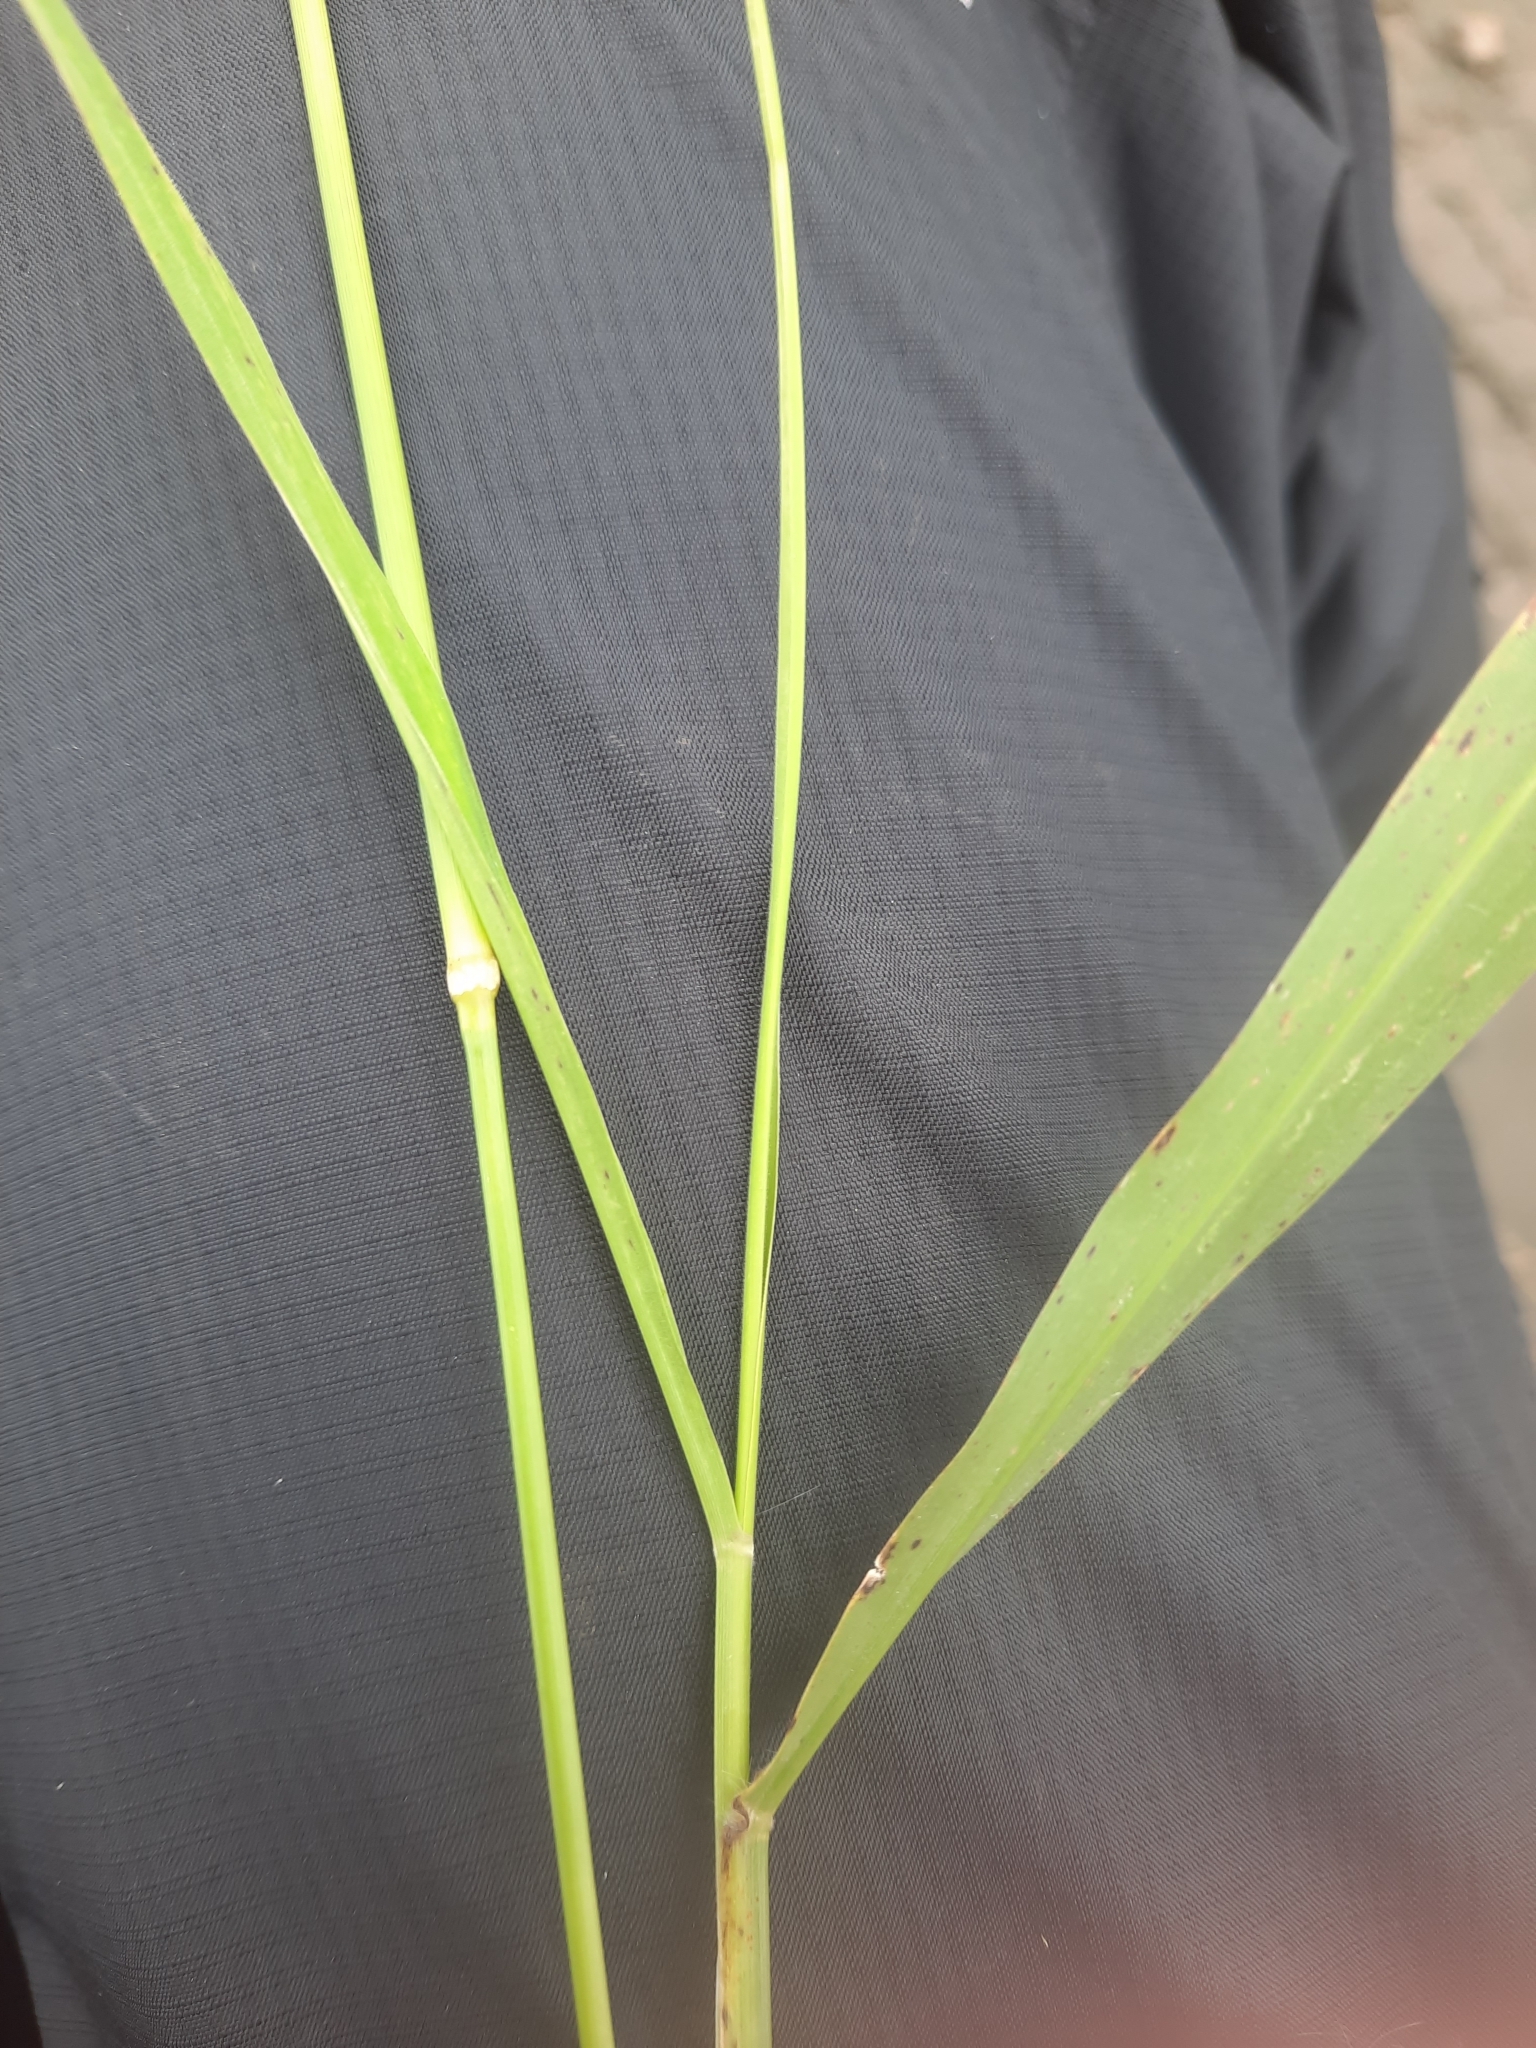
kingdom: Plantae
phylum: Tracheophyta
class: Liliopsida
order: Poales
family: Poaceae
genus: Megathyrsus
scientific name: Megathyrsus maximus
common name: Guineagrass
